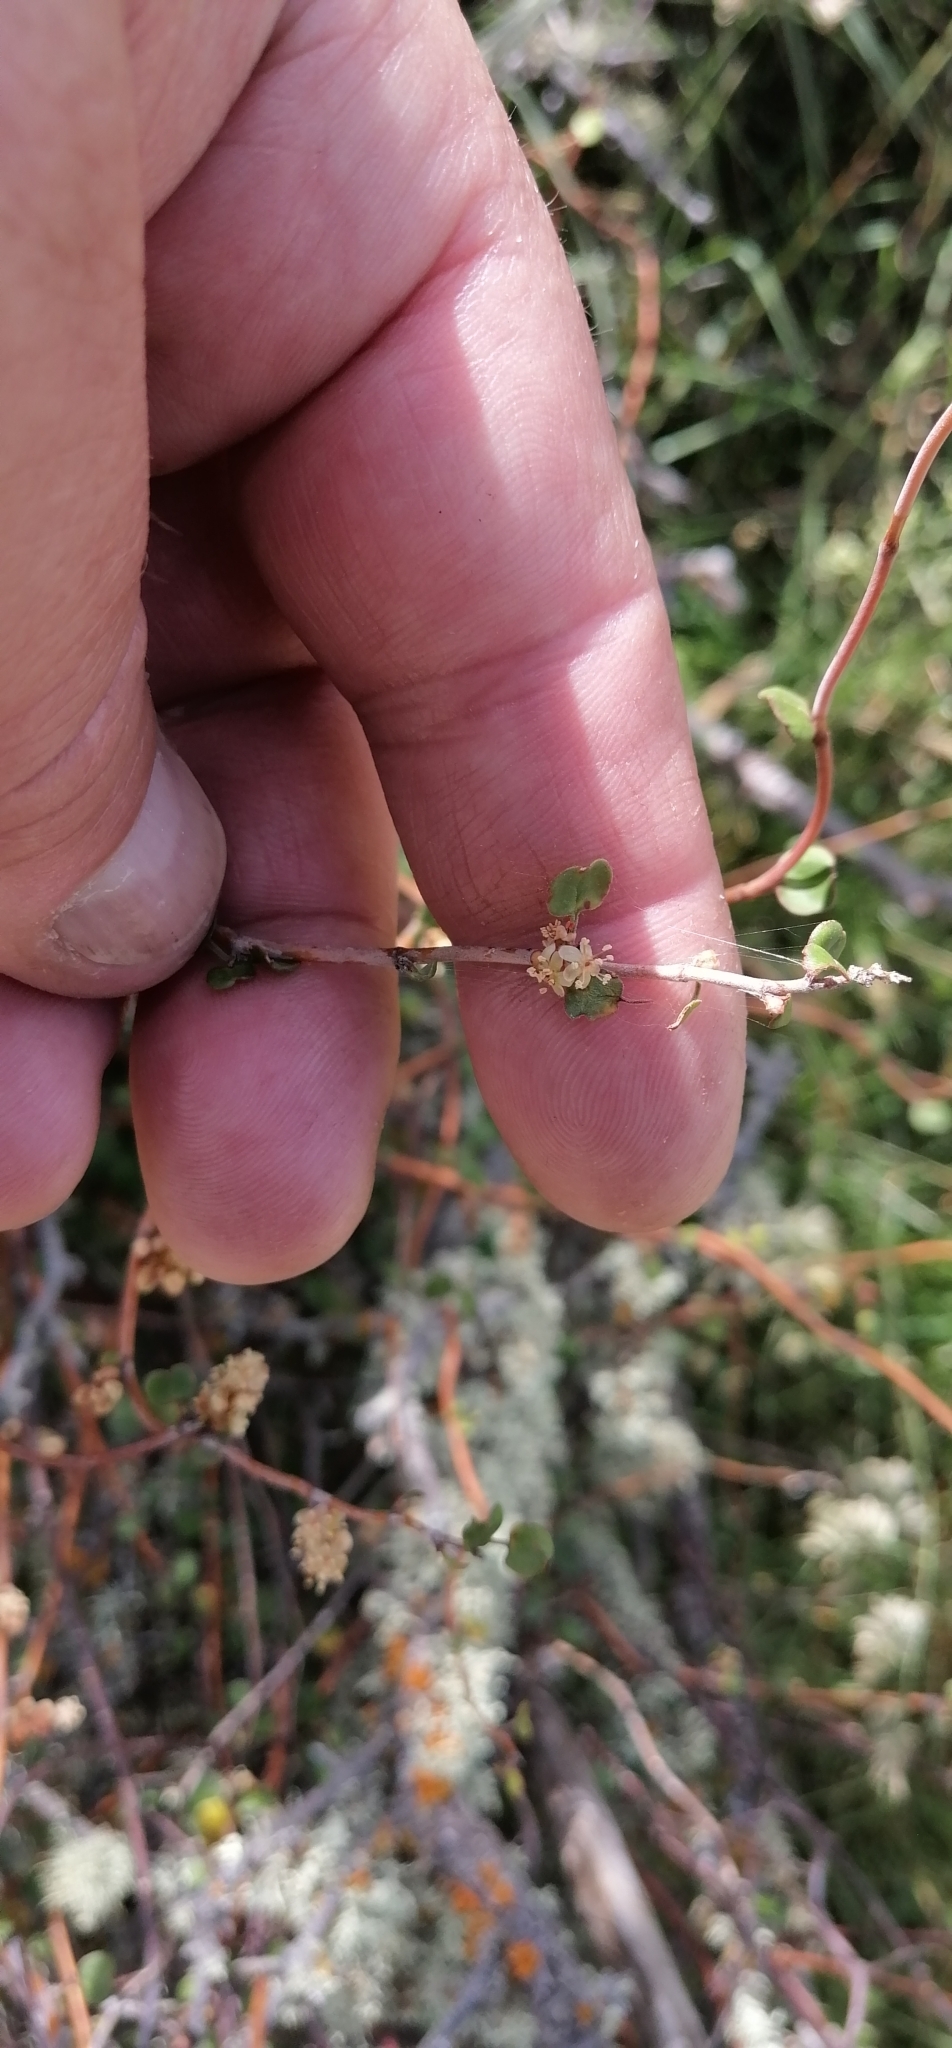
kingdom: Plantae
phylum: Tracheophyta
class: Magnoliopsida
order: Caryophyllales
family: Polygonaceae
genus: Muehlenbeckia
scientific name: Muehlenbeckia complexa
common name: Wireplant
